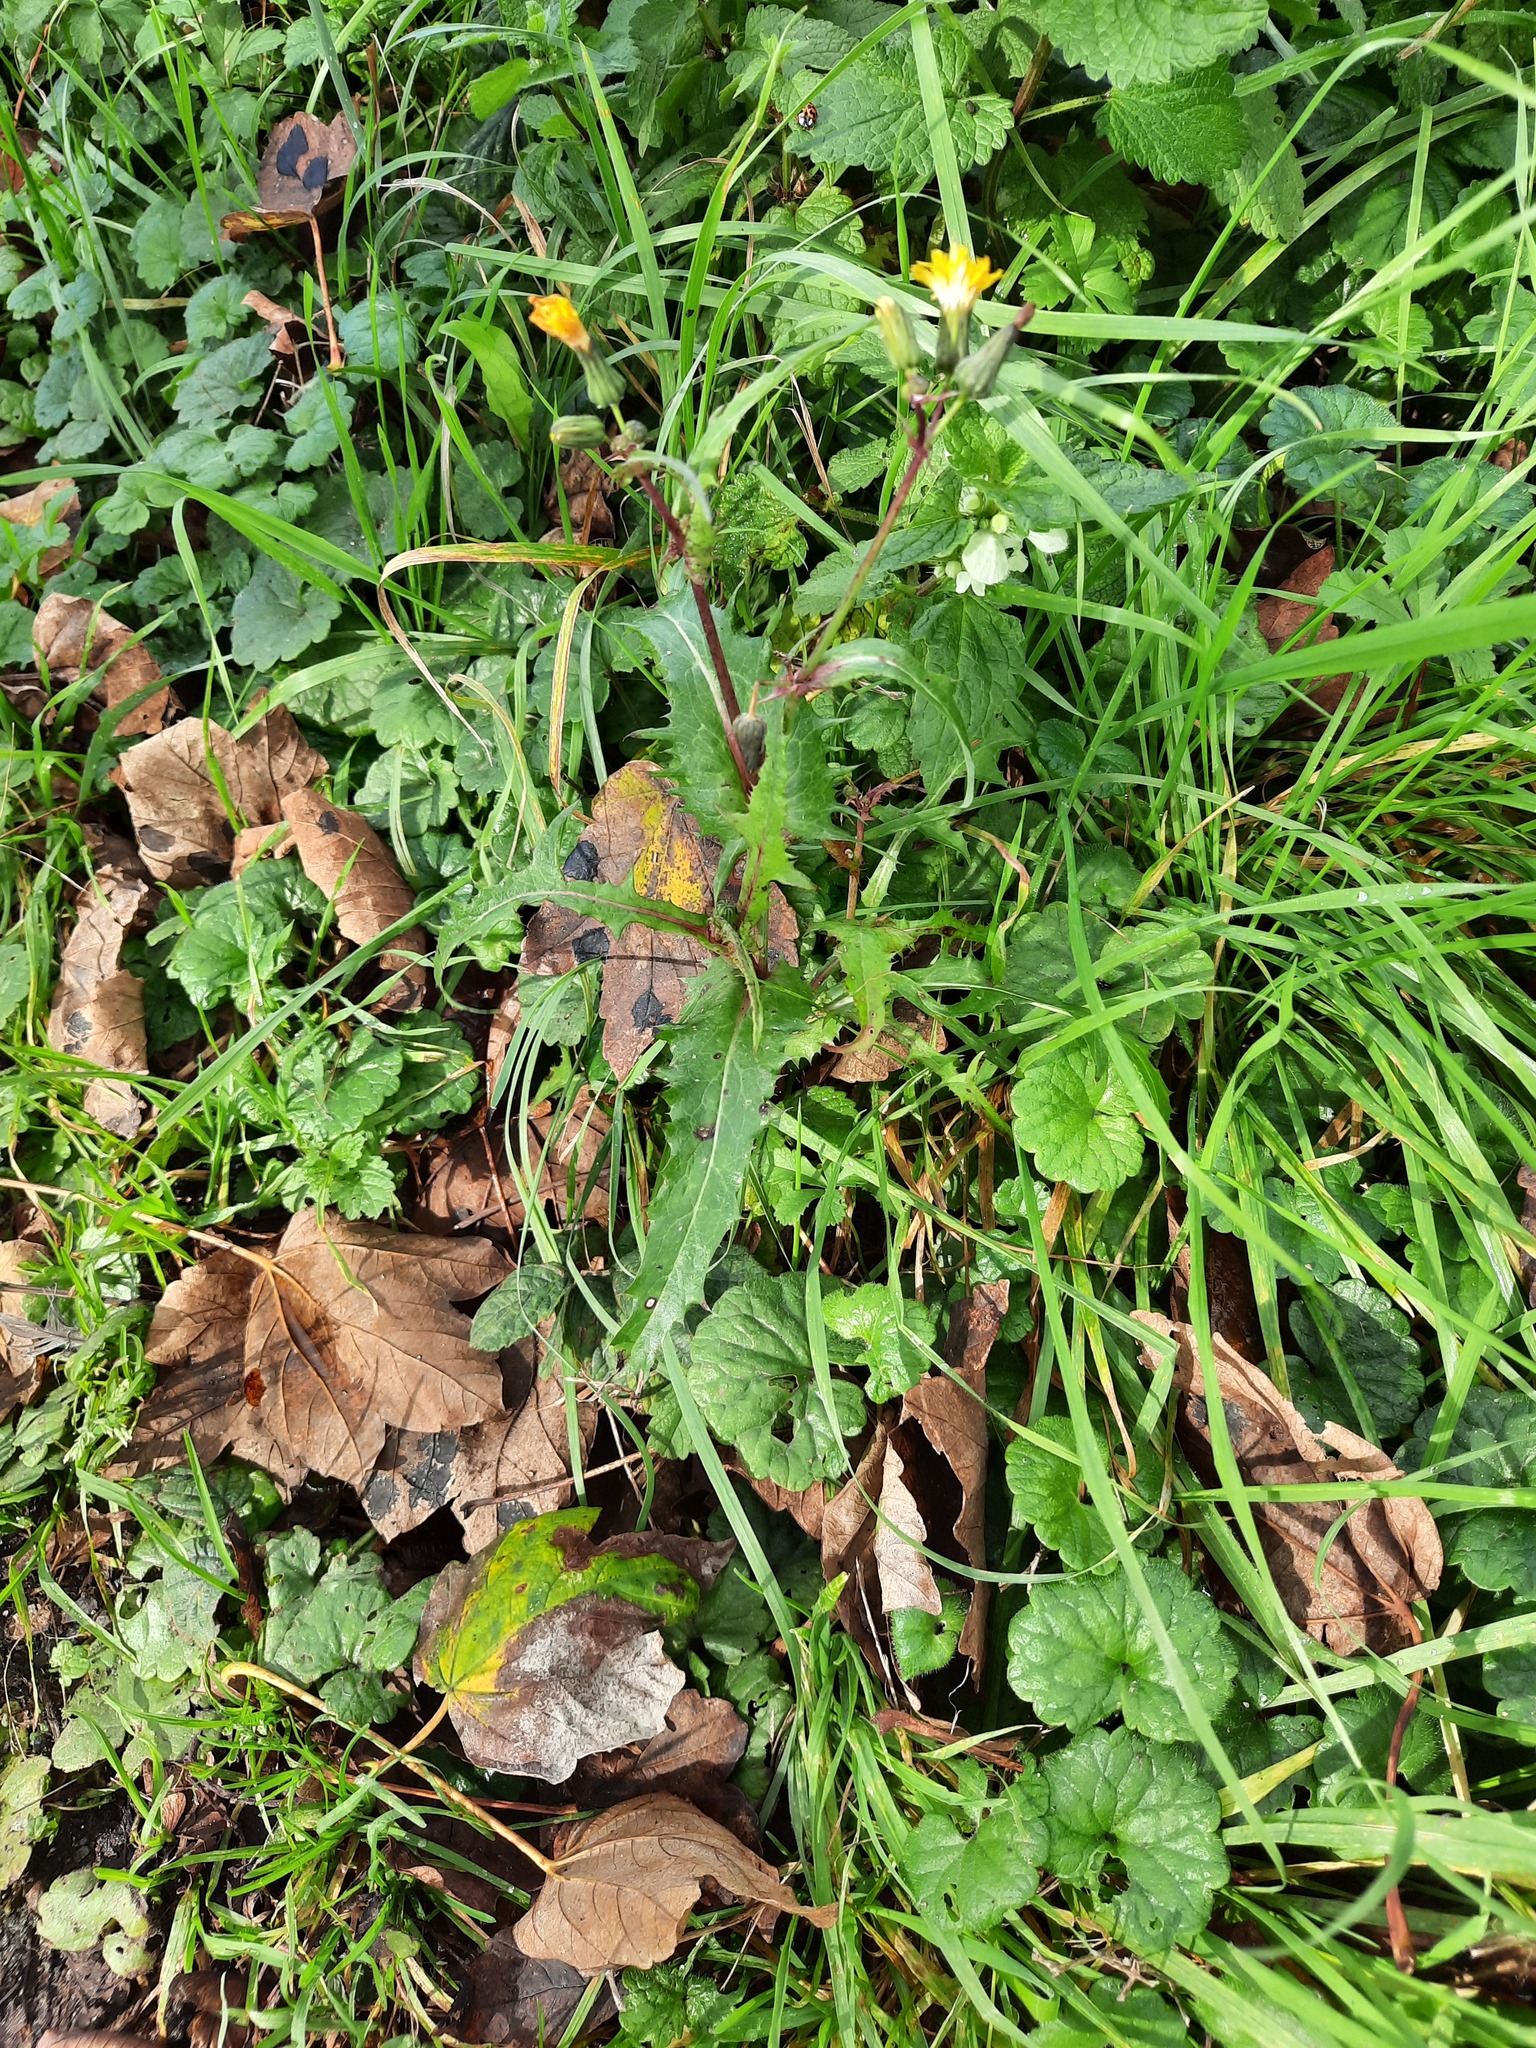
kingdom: Plantae
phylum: Tracheophyta
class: Magnoliopsida
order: Asterales
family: Asteraceae
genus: Sonchus
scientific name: Sonchus oleraceus
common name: Common sowthistle
